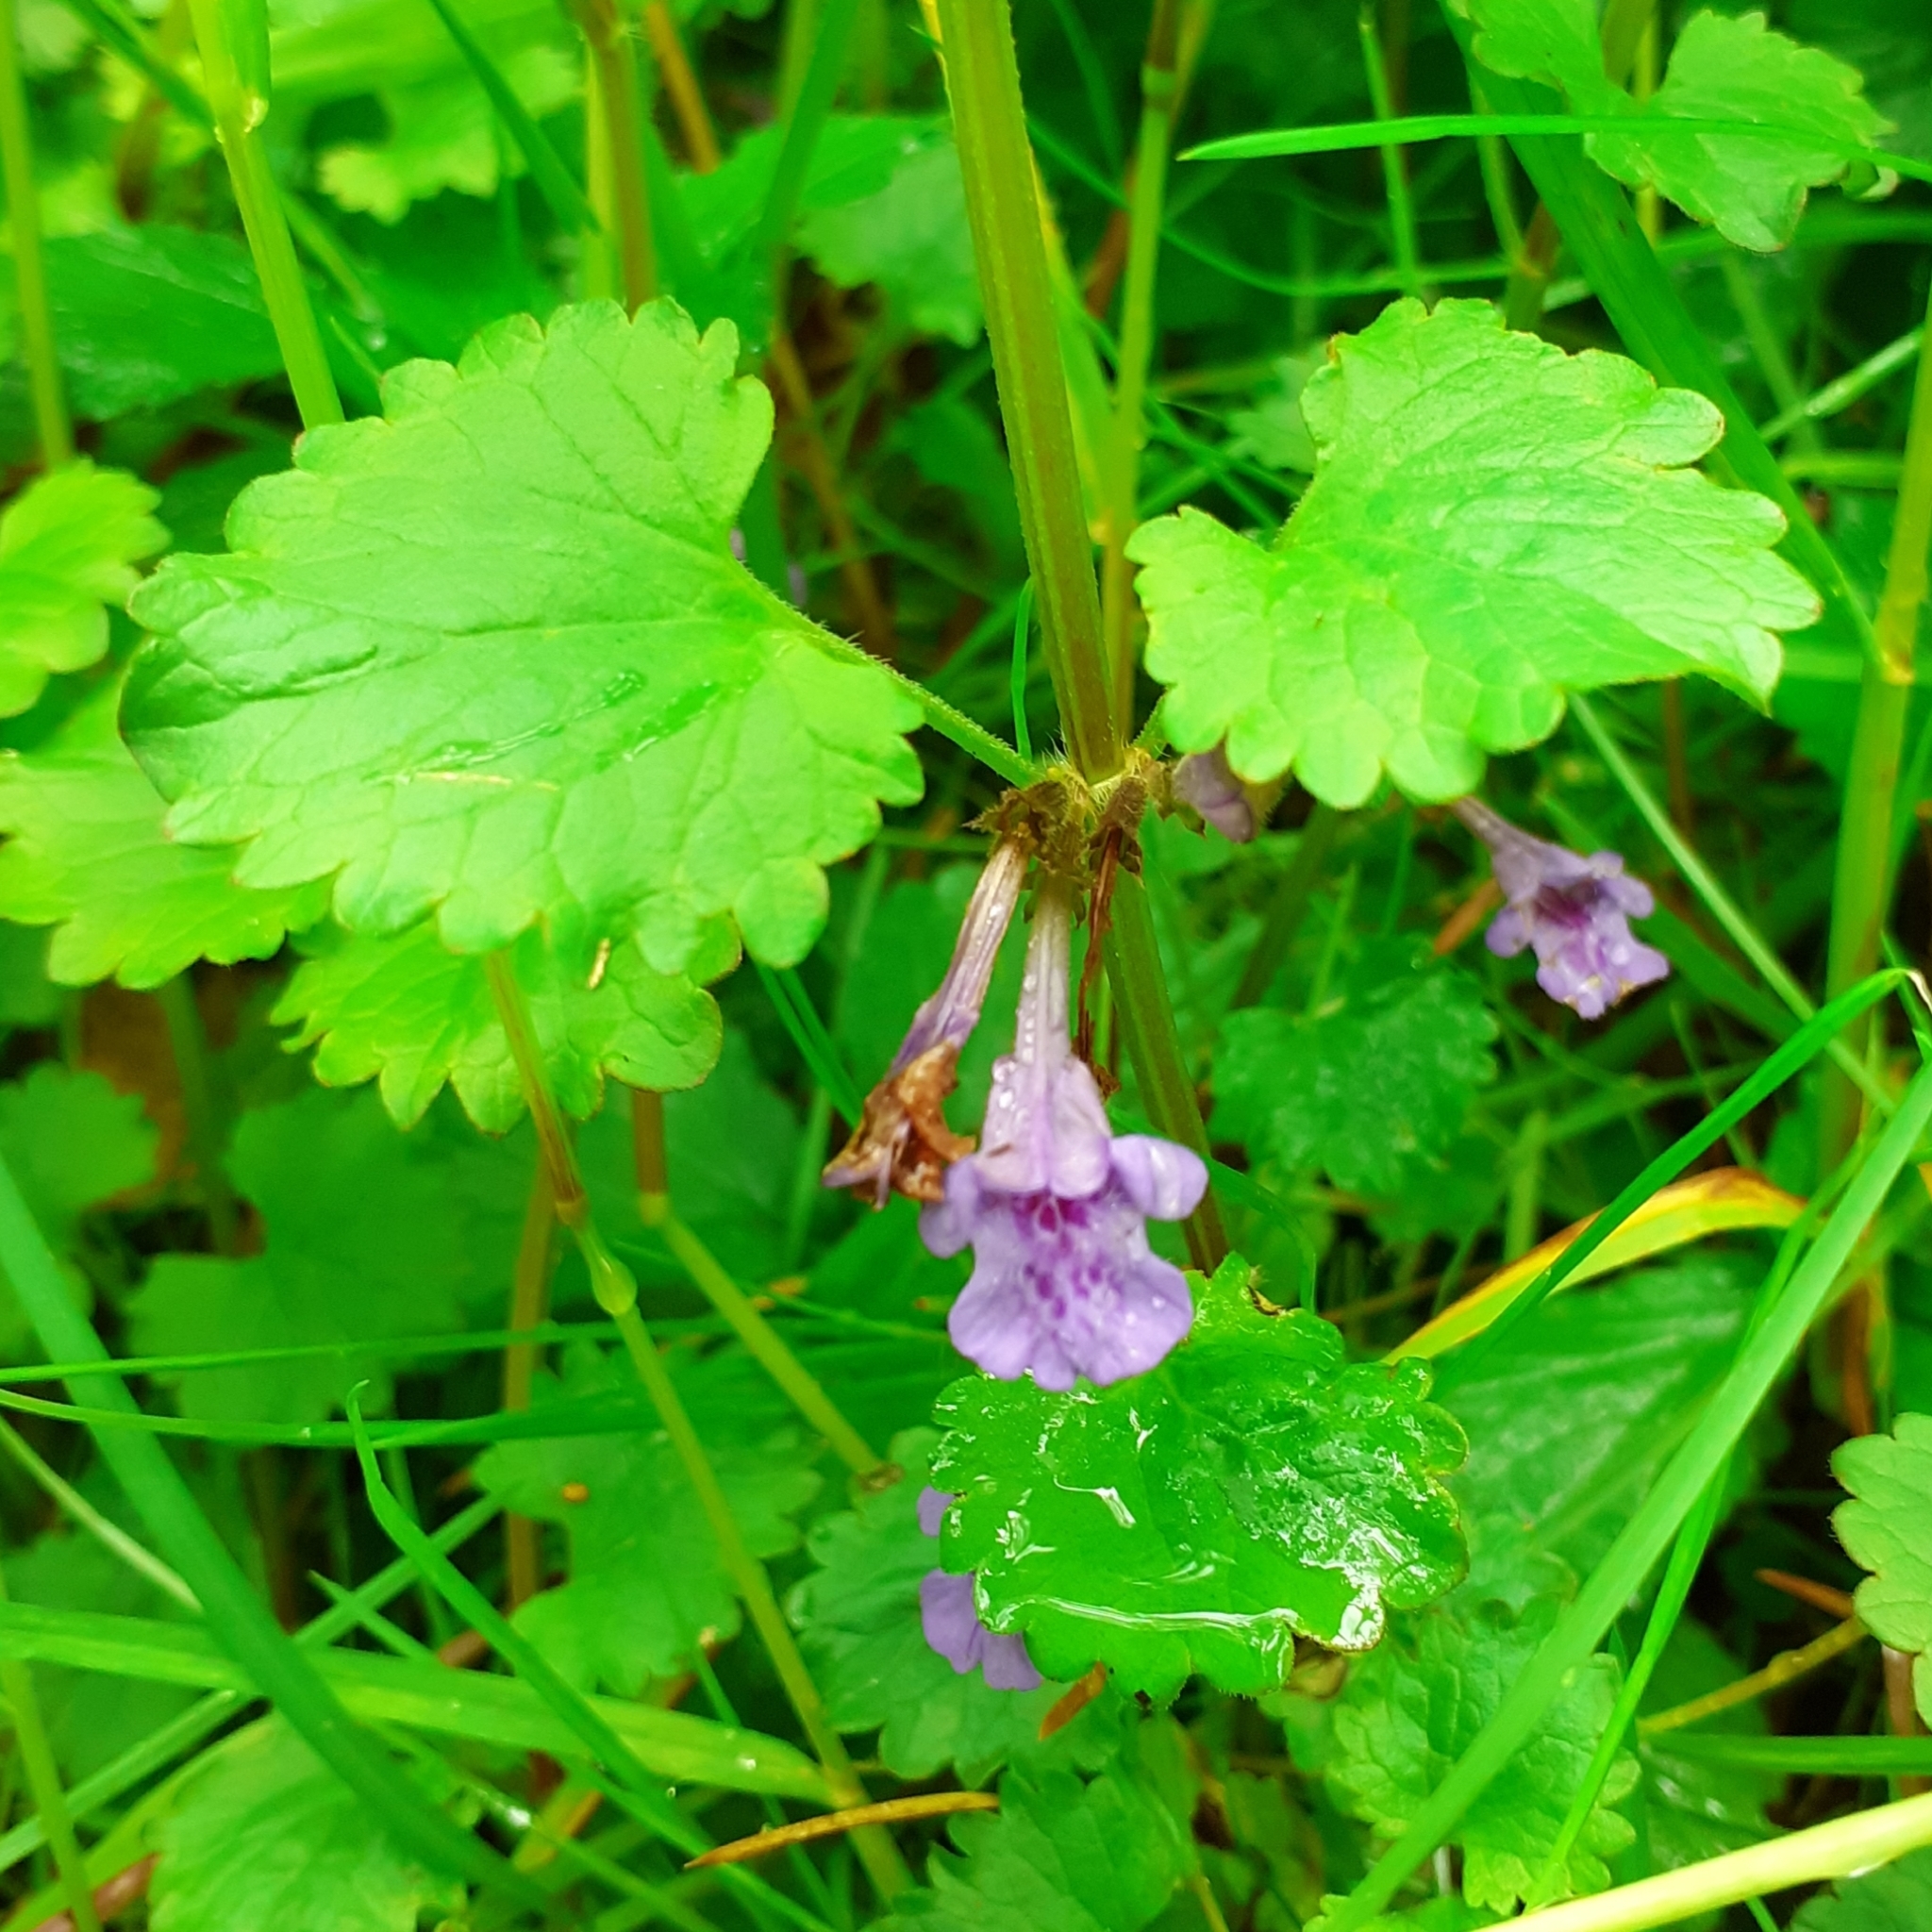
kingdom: Plantae
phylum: Tracheophyta
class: Magnoliopsida
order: Lamiales
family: Lamiaceae
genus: Glechoma
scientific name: Glechoma hederacea
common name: Ground ivy
